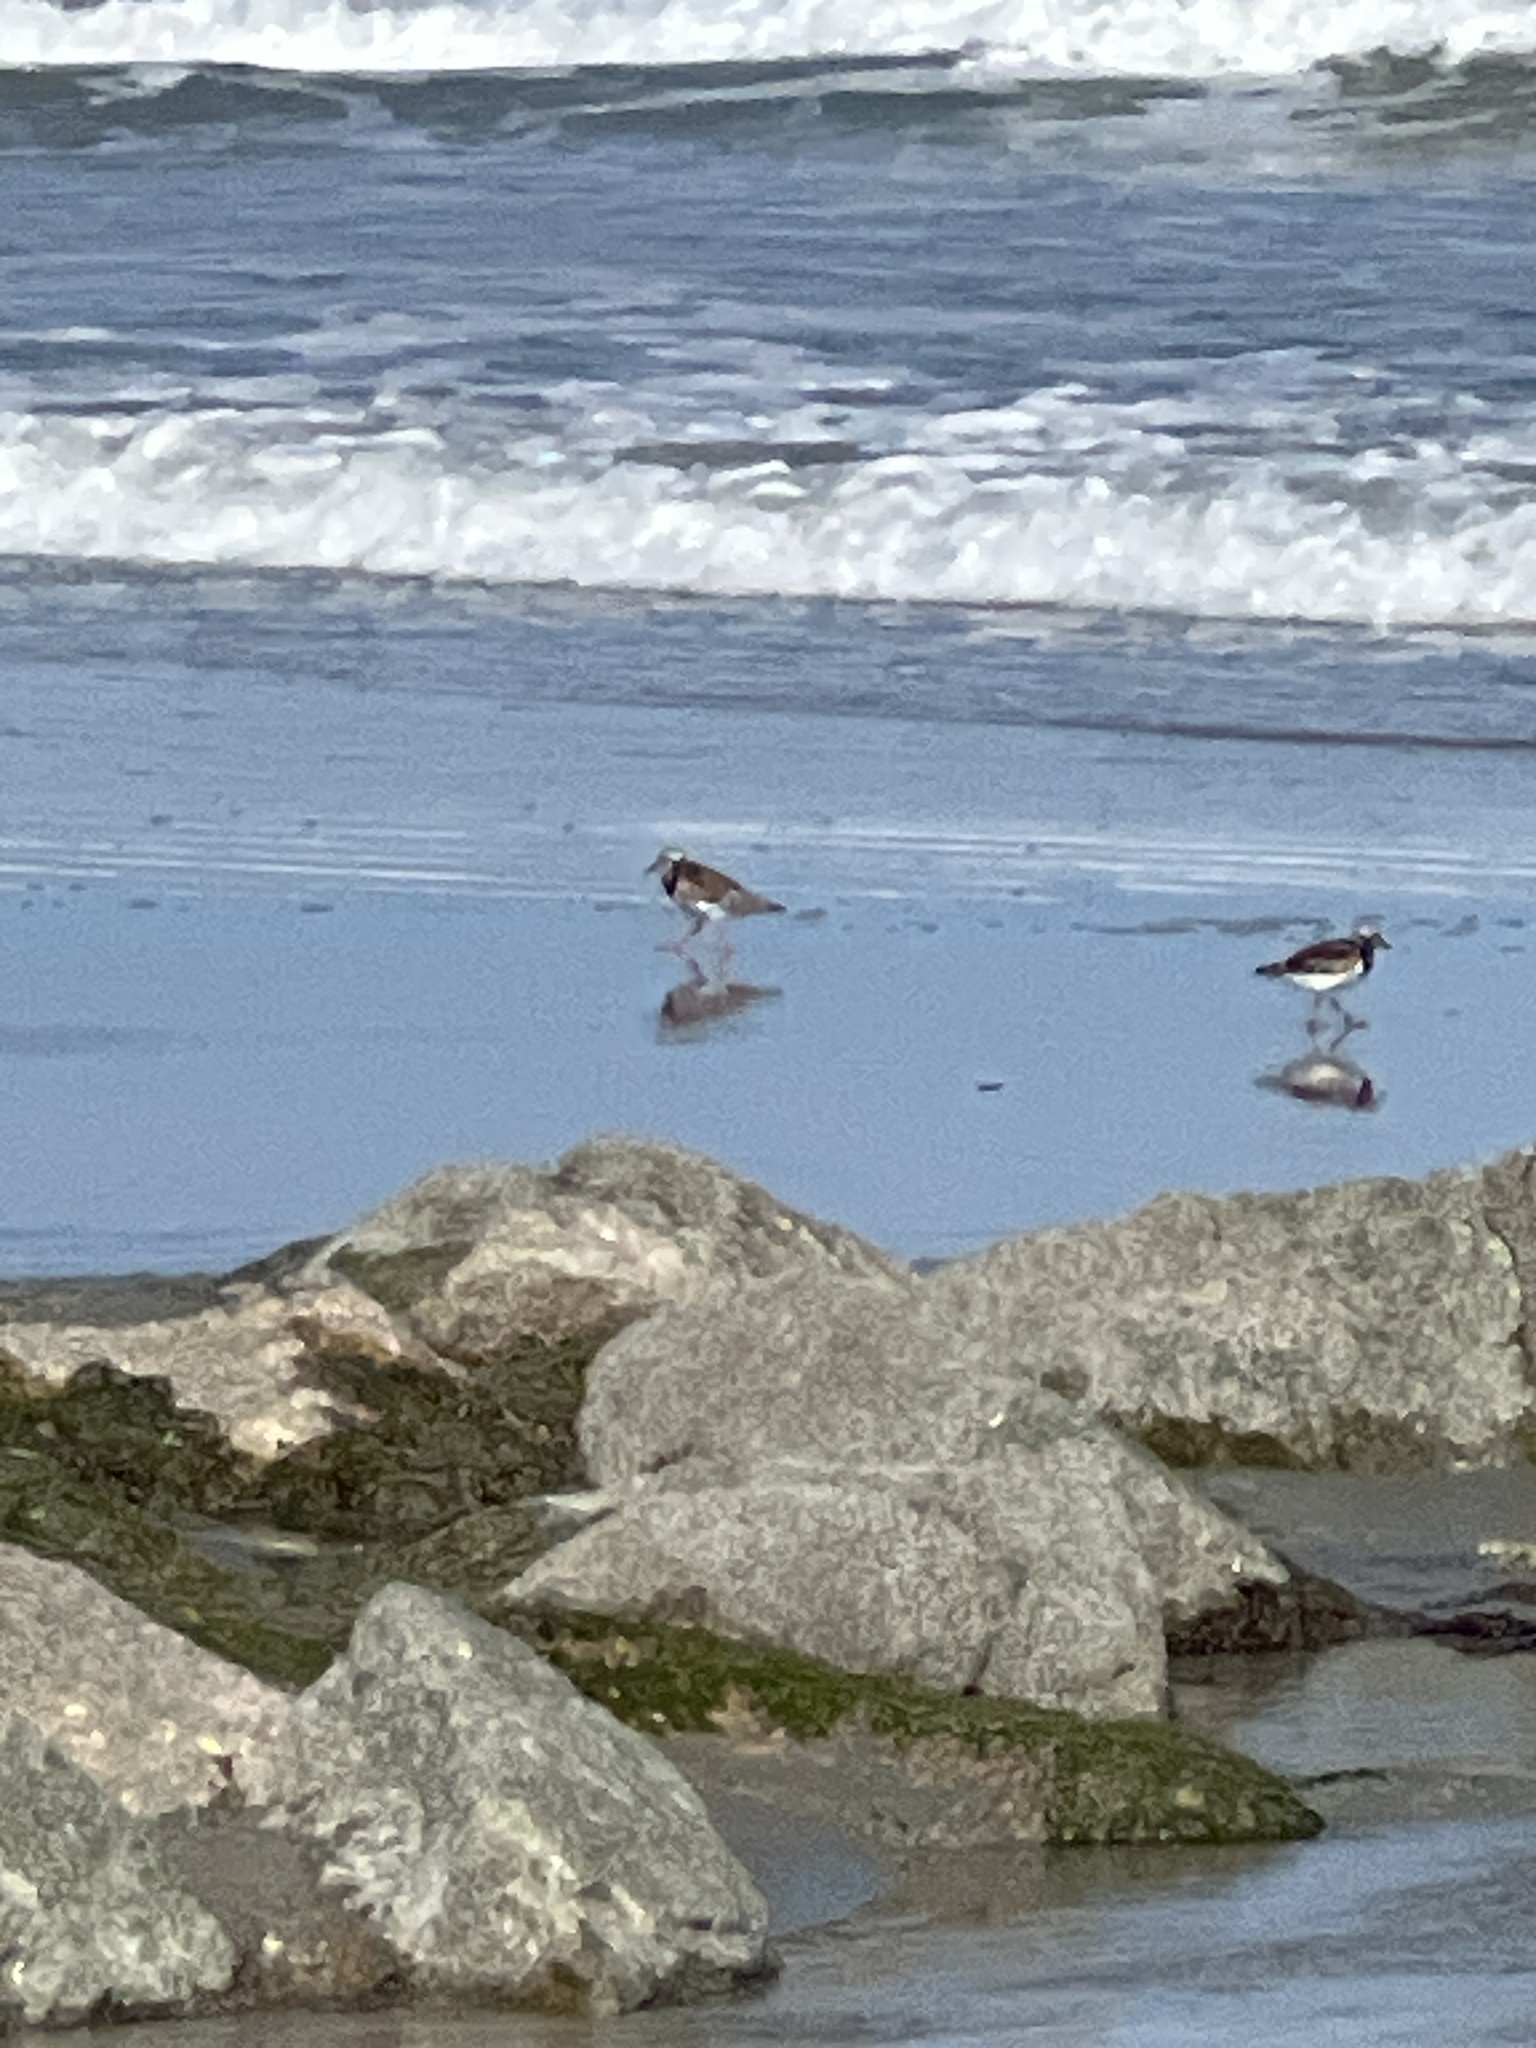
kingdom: Animalia
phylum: Chordata
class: Aves
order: Charadriiformes
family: Scolopacidae
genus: Arenaria
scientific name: Arenaria interpres
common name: Ruddy turnstone
